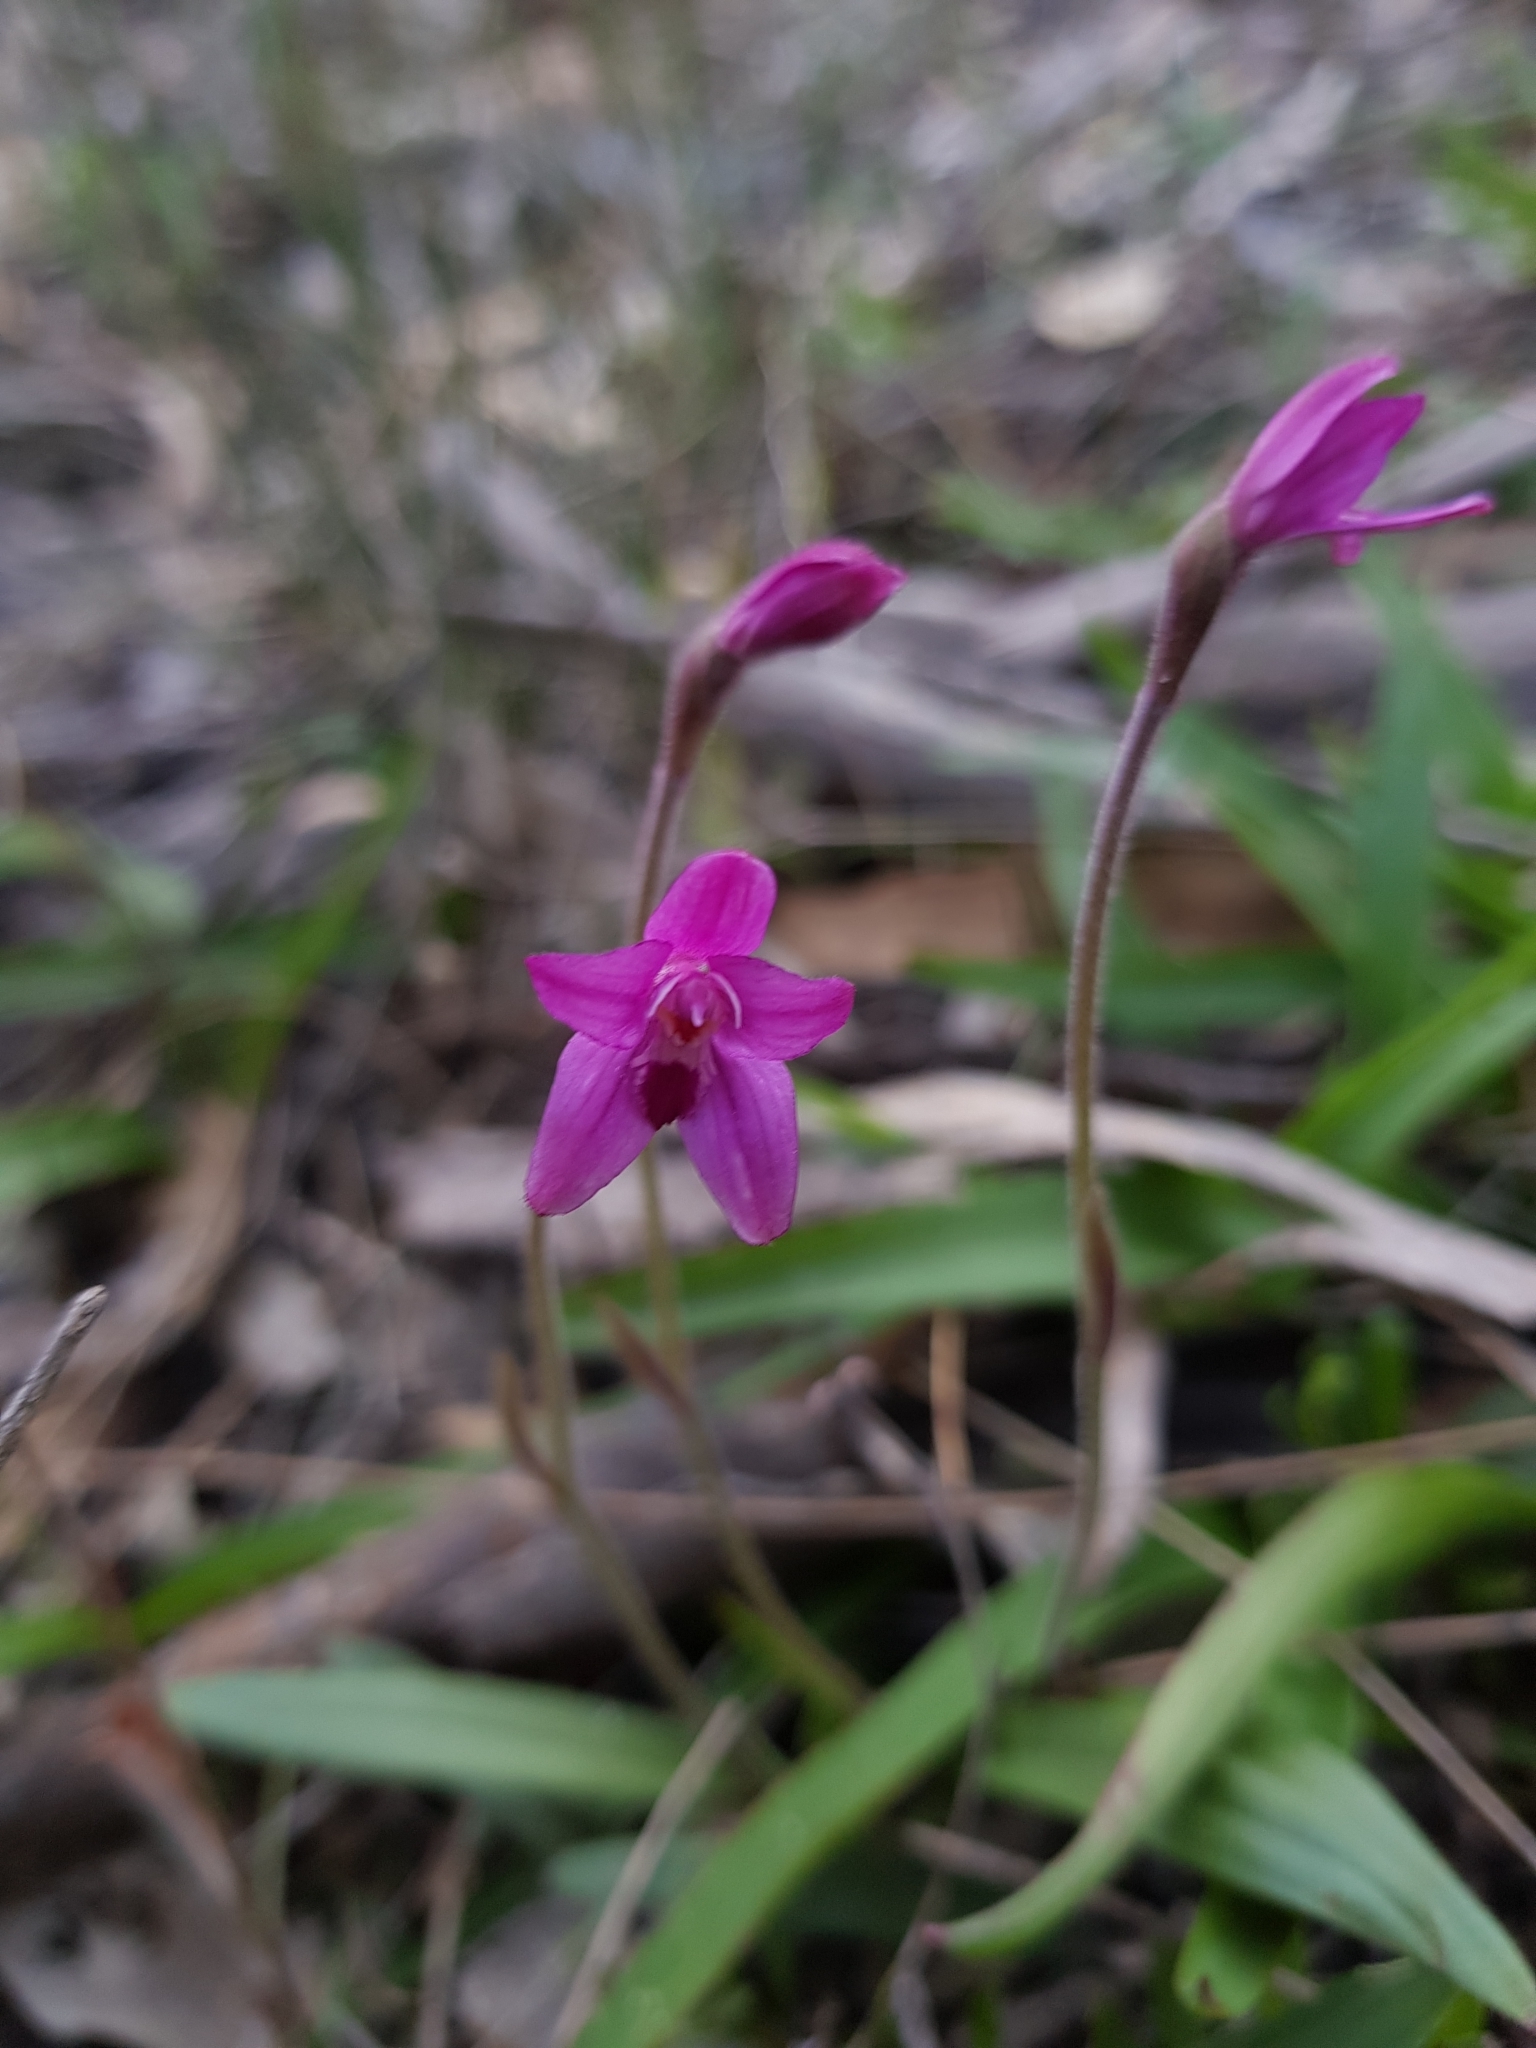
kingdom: Plantae
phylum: Tracheophyta
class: Liliopsida
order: Asparagales
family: Orchidaceae
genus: Caladenia
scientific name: Caladenia reptans
